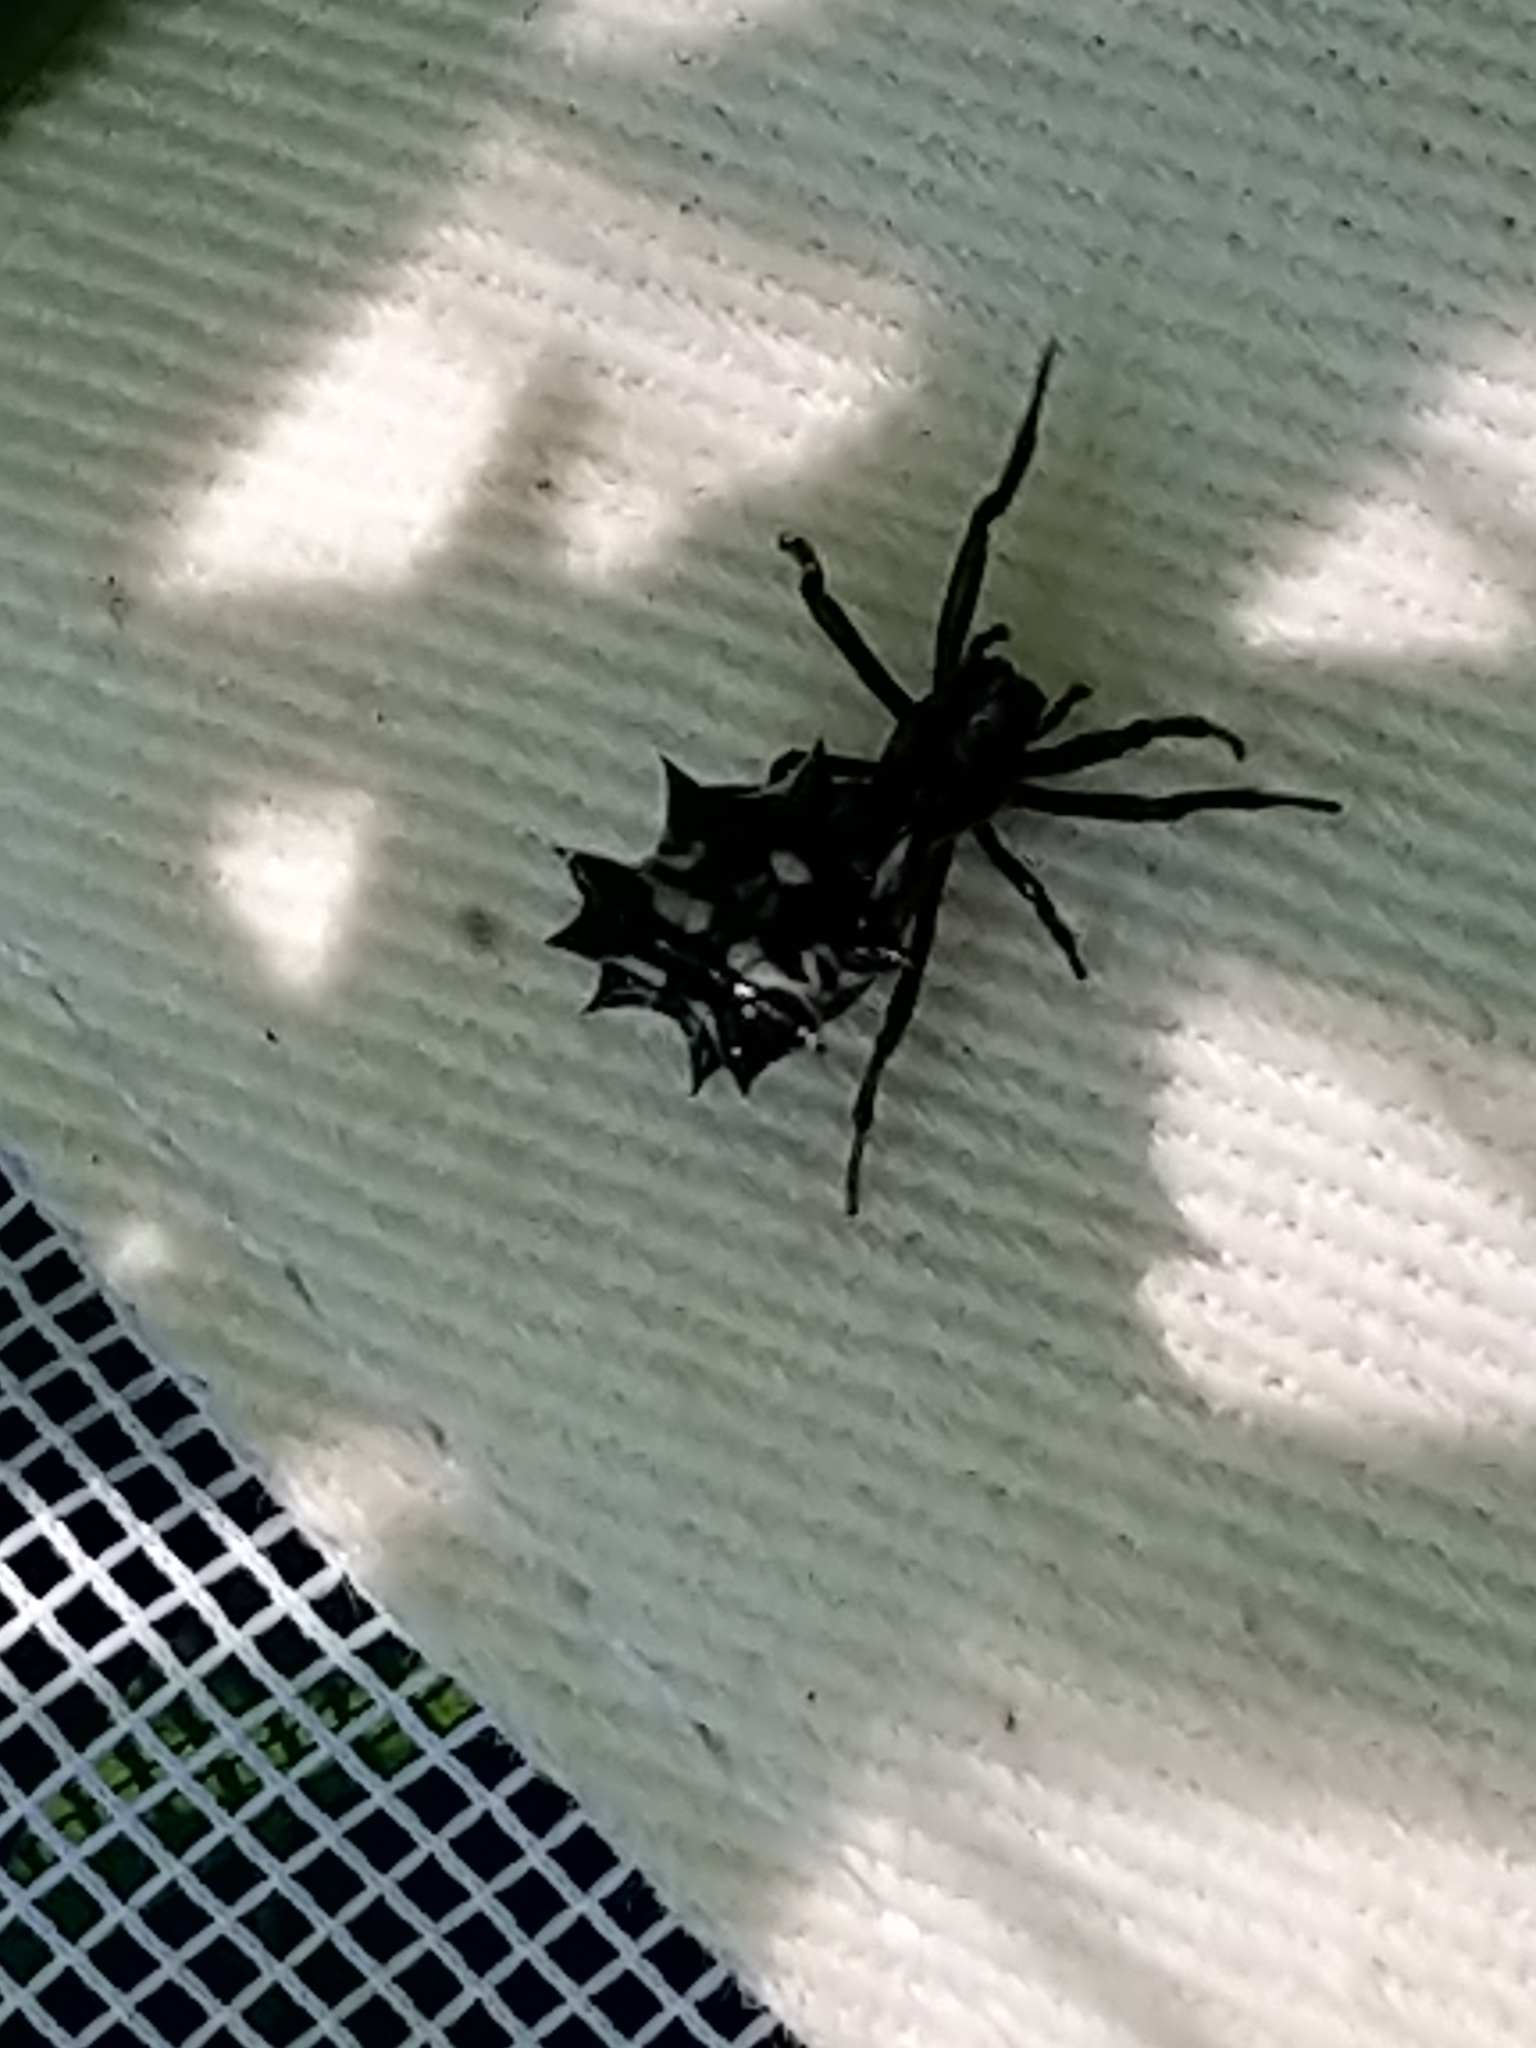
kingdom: Animalia
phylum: Arthropoda
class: Arachnida
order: Araneae
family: Araneidae
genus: Micrathena
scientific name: Micrathena gracilis
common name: Orb weavers
